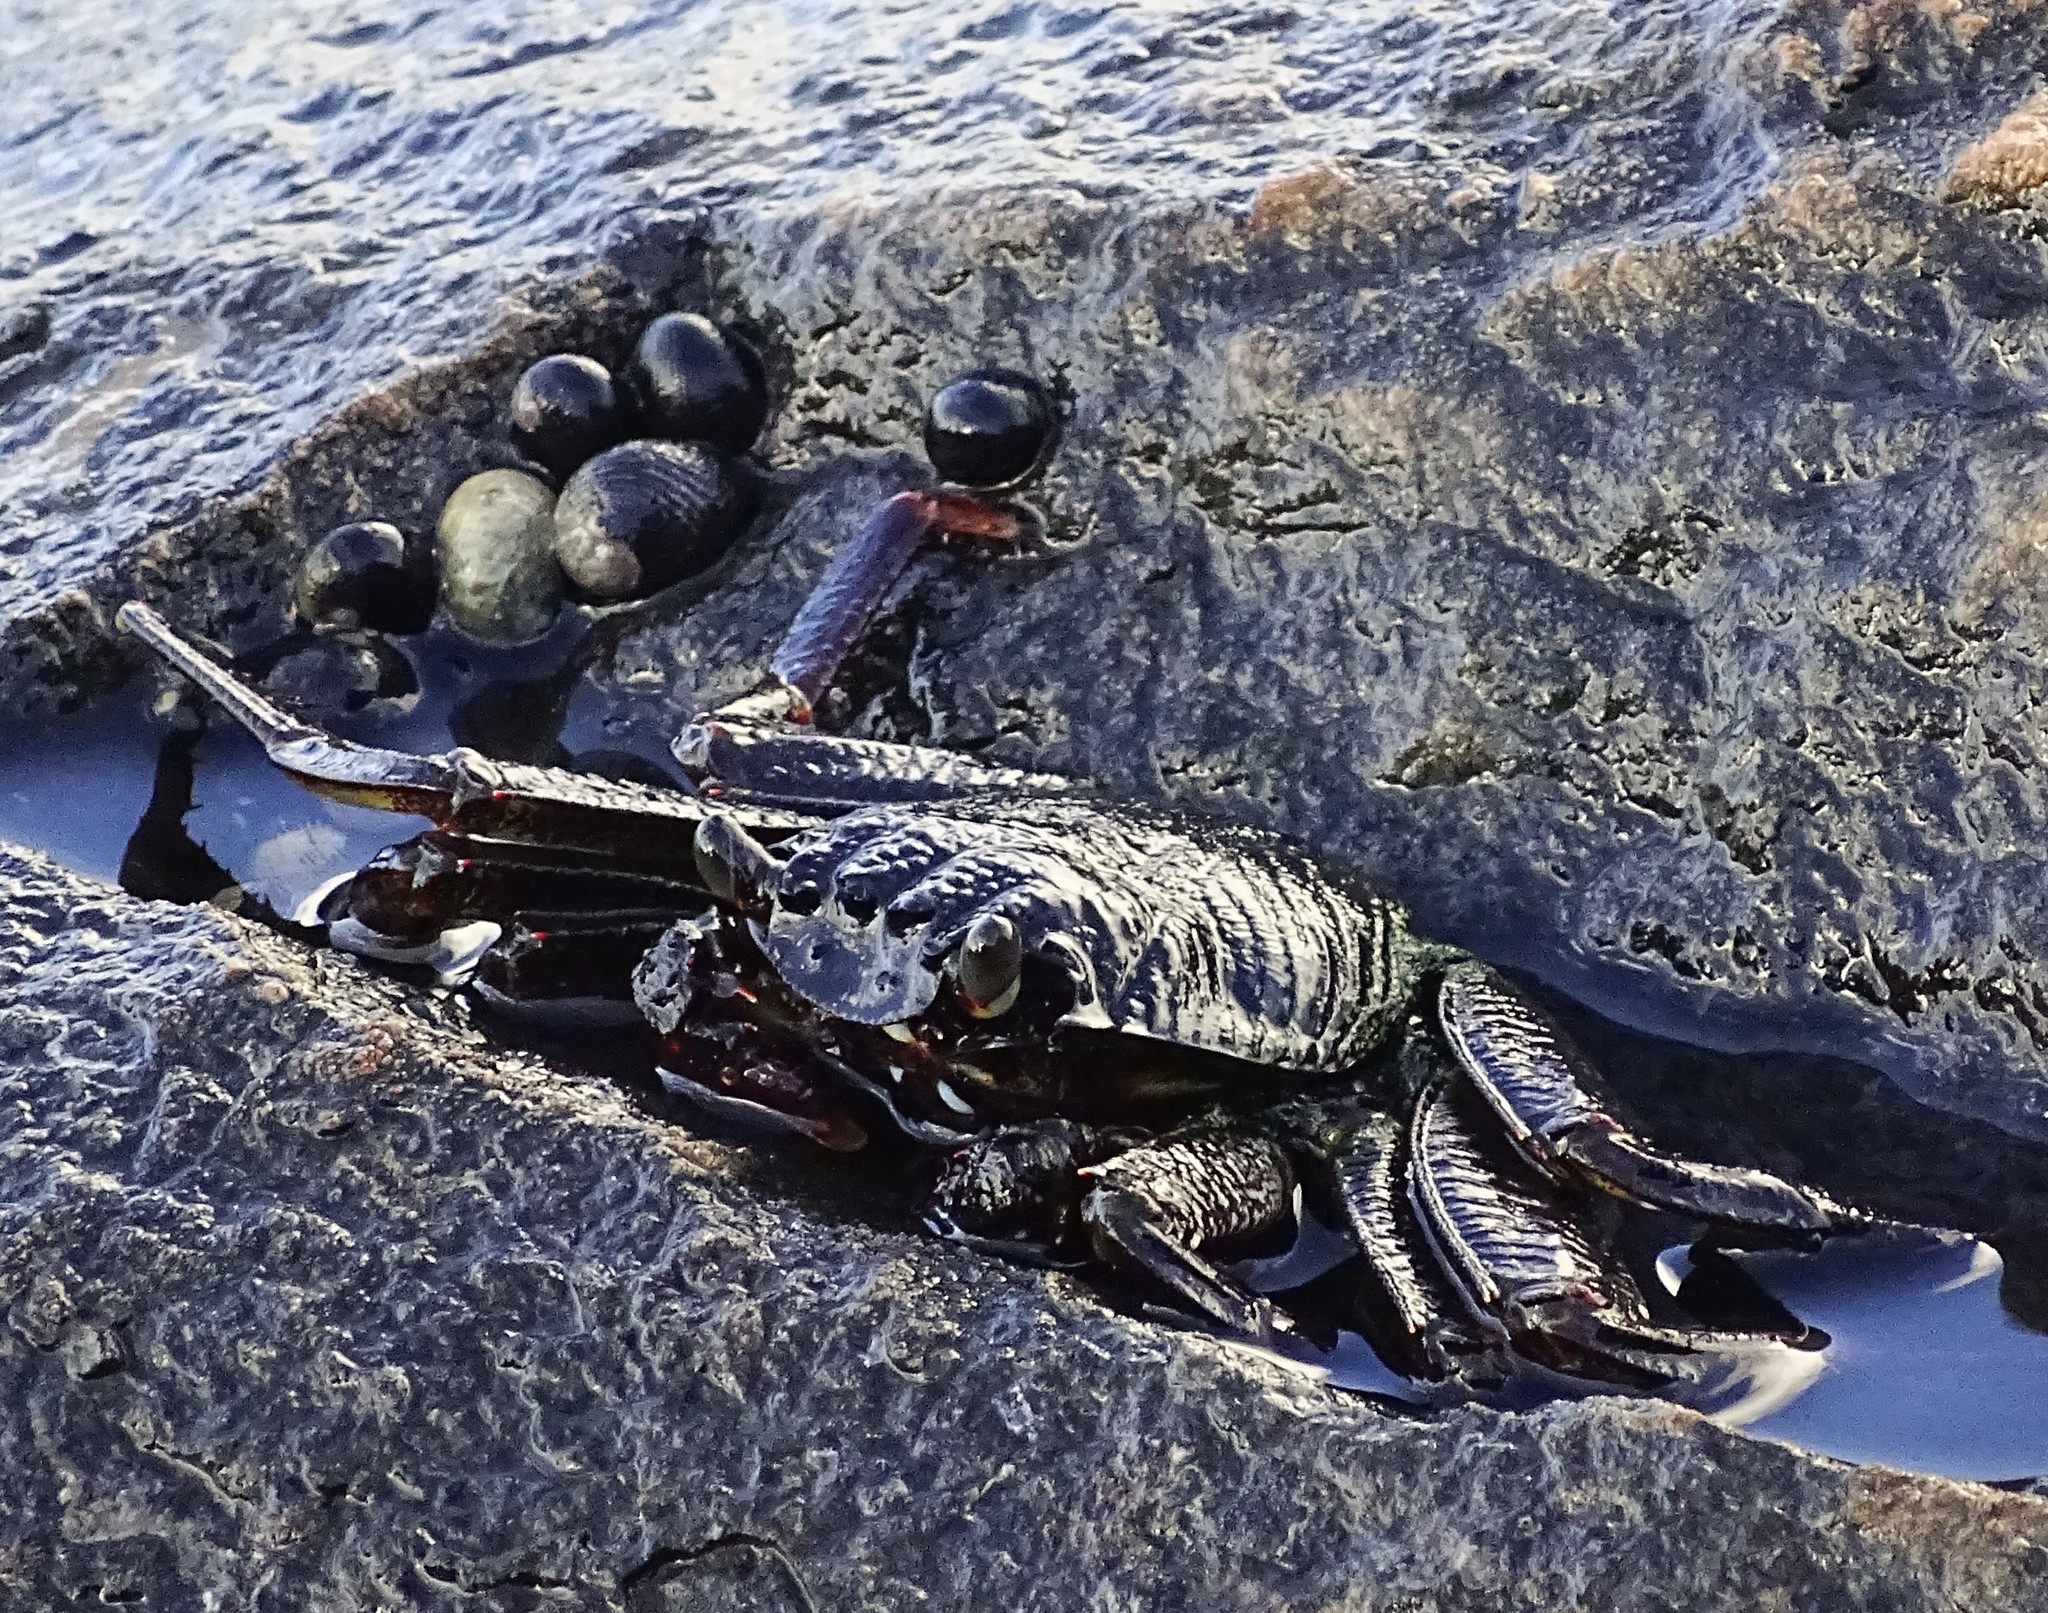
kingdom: Animalia
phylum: Arthropoda
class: Malacostraca
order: Decapoda
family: Grapsidae
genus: Grapsus
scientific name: Grapsus tenuicrustatus
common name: Natal lightfoot crab
